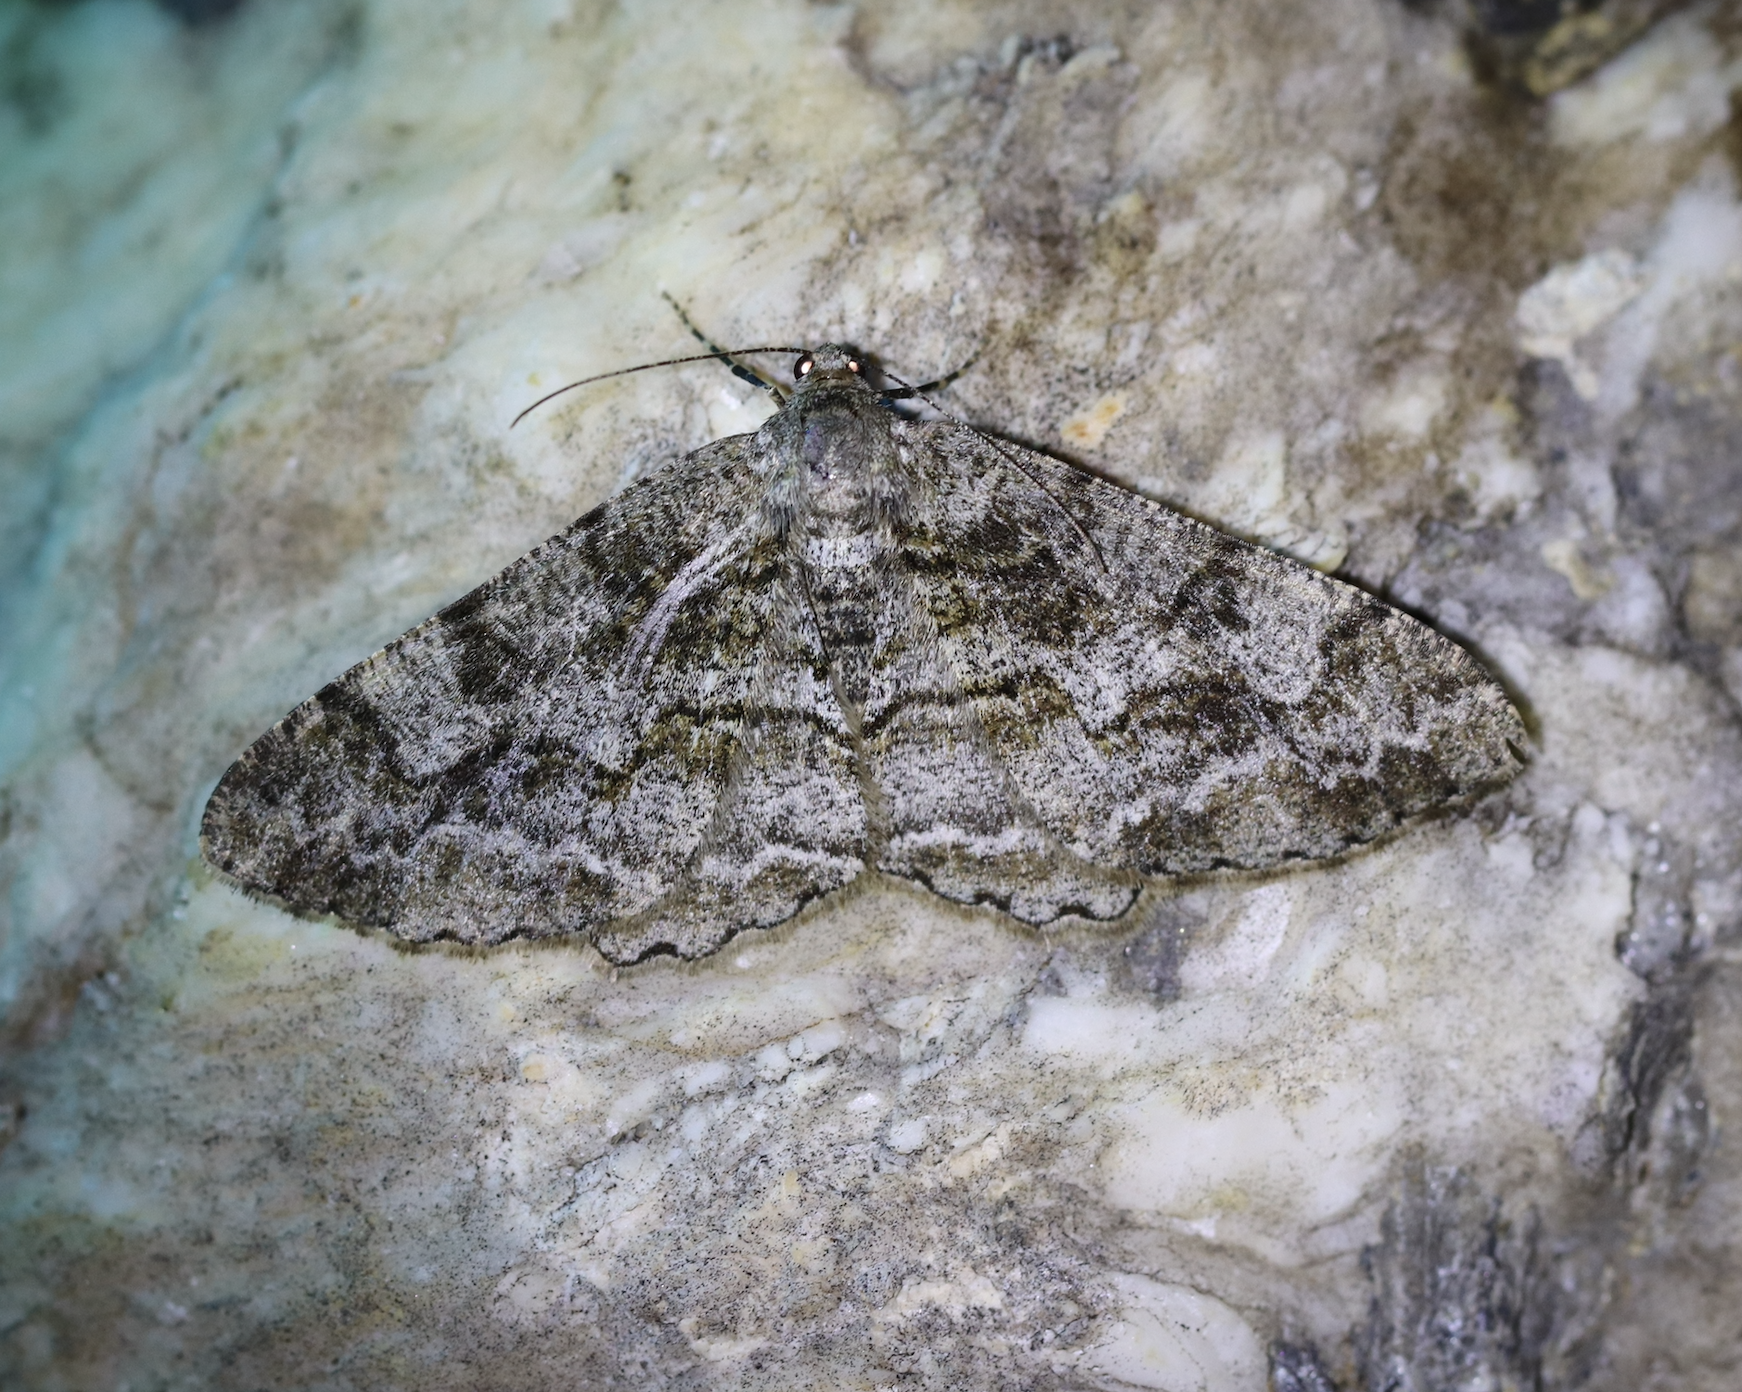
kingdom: Animalia
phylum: Arthropoda
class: Insecta
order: Lepidoptera
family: Geometridae
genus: Alcis
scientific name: Alcis repandata
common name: Mottled beauty
